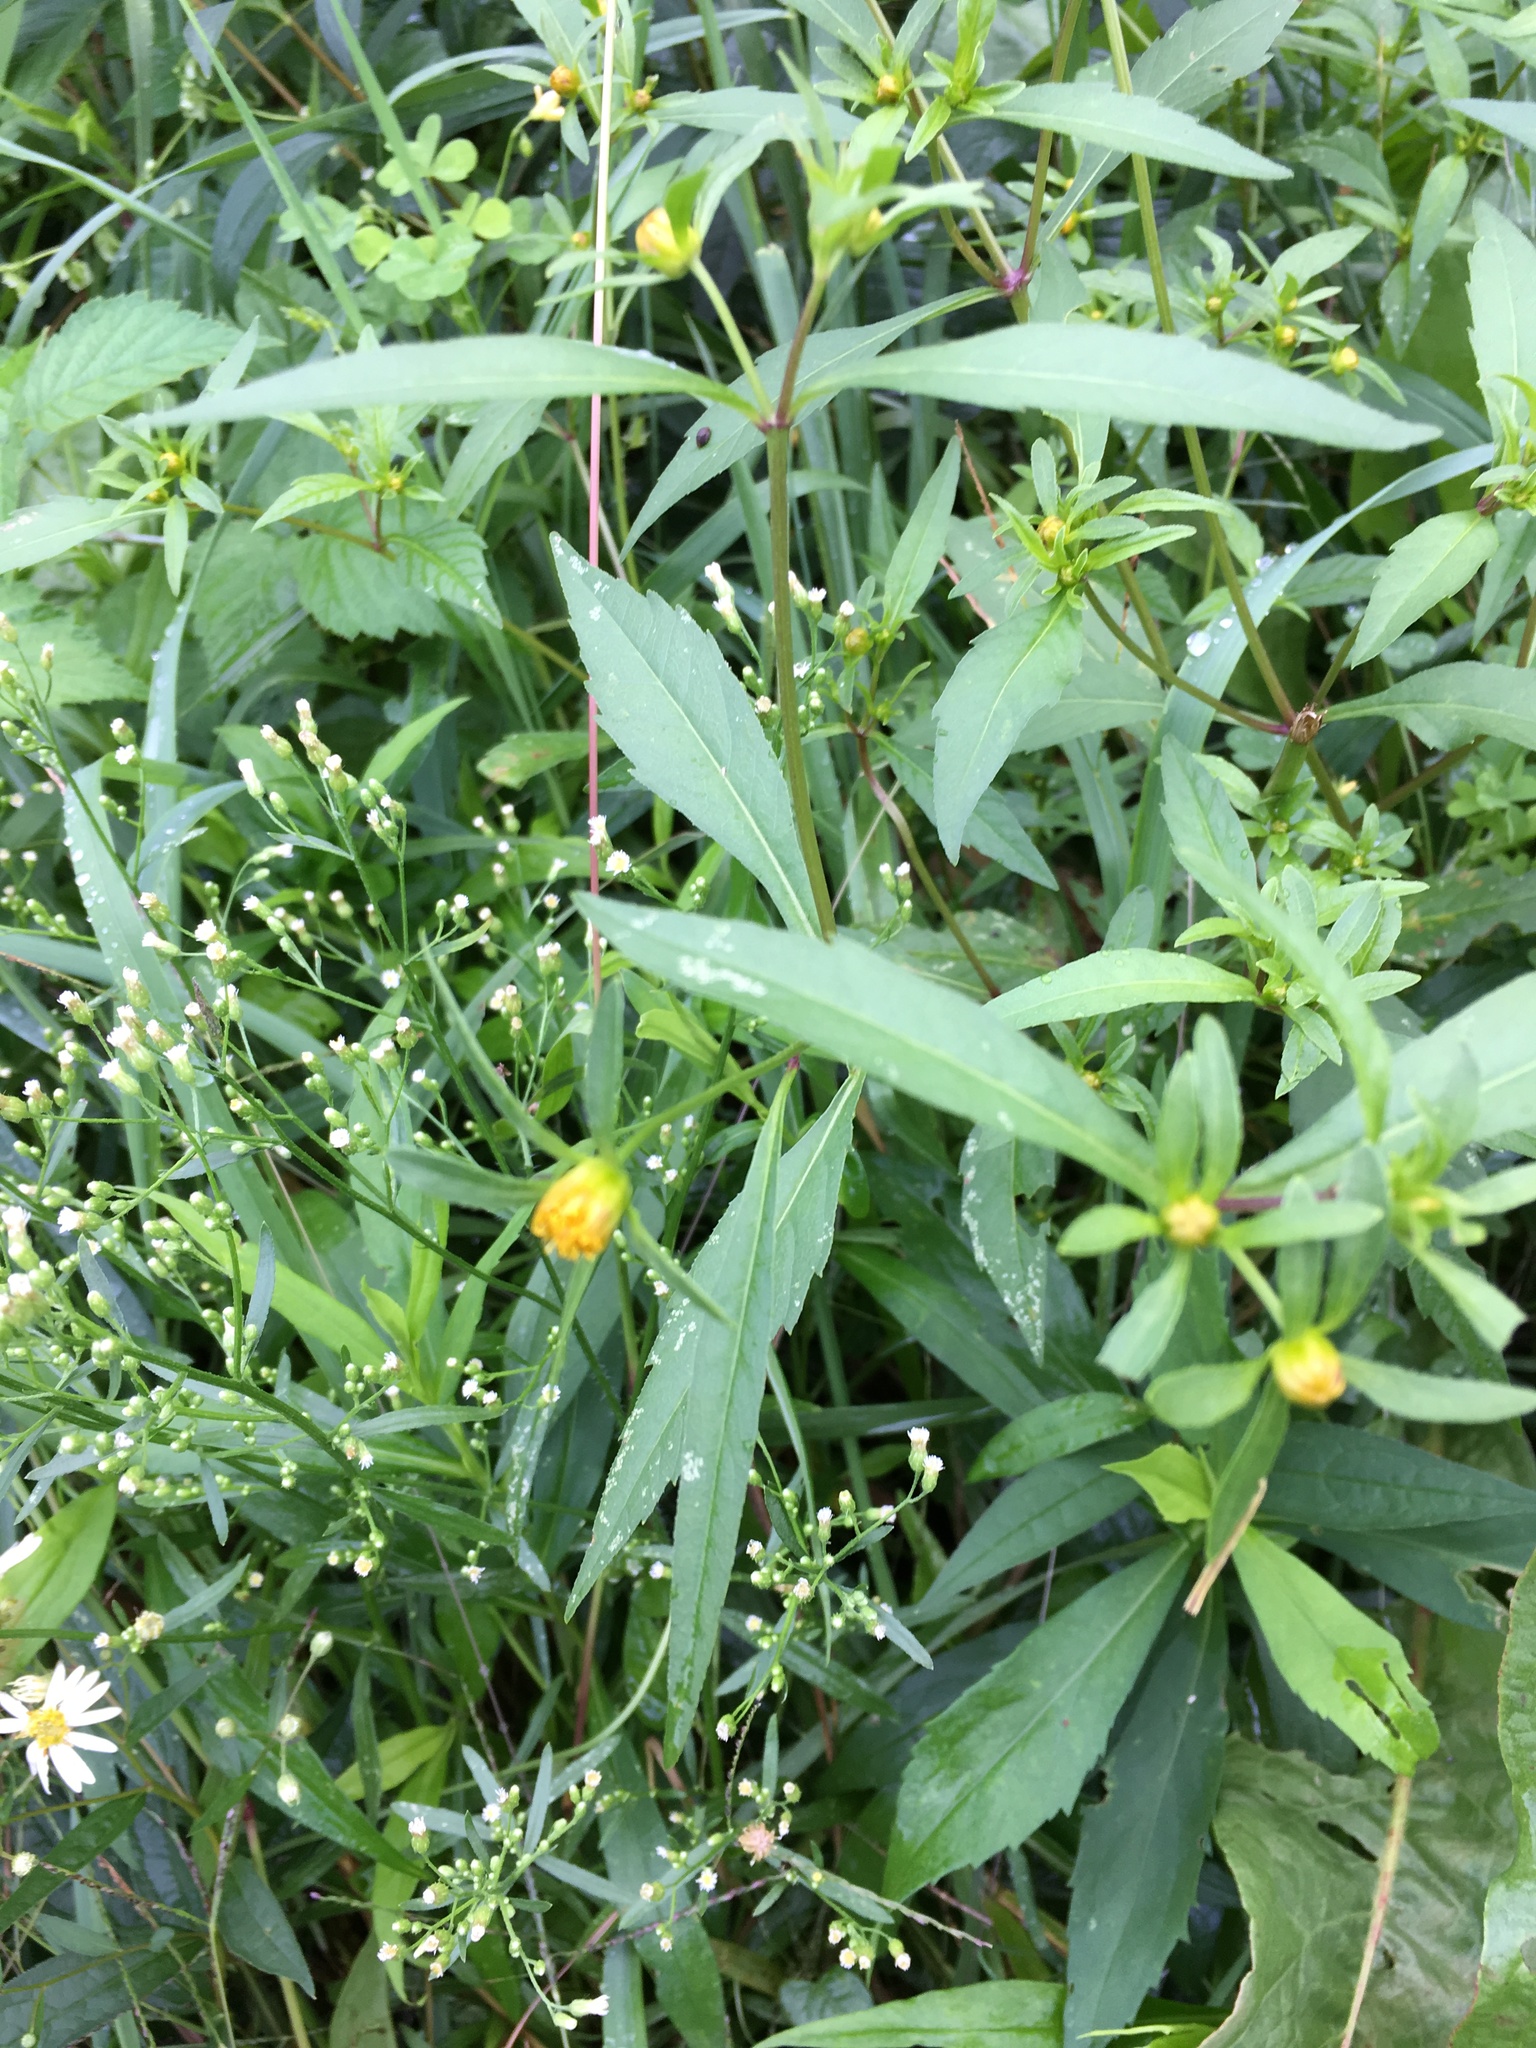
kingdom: Plantae
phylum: Tracheophyta
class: Magnoliopsida
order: Asterales
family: Asteraceae
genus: Bidens
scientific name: Bidens connata
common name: London bur-marigold
